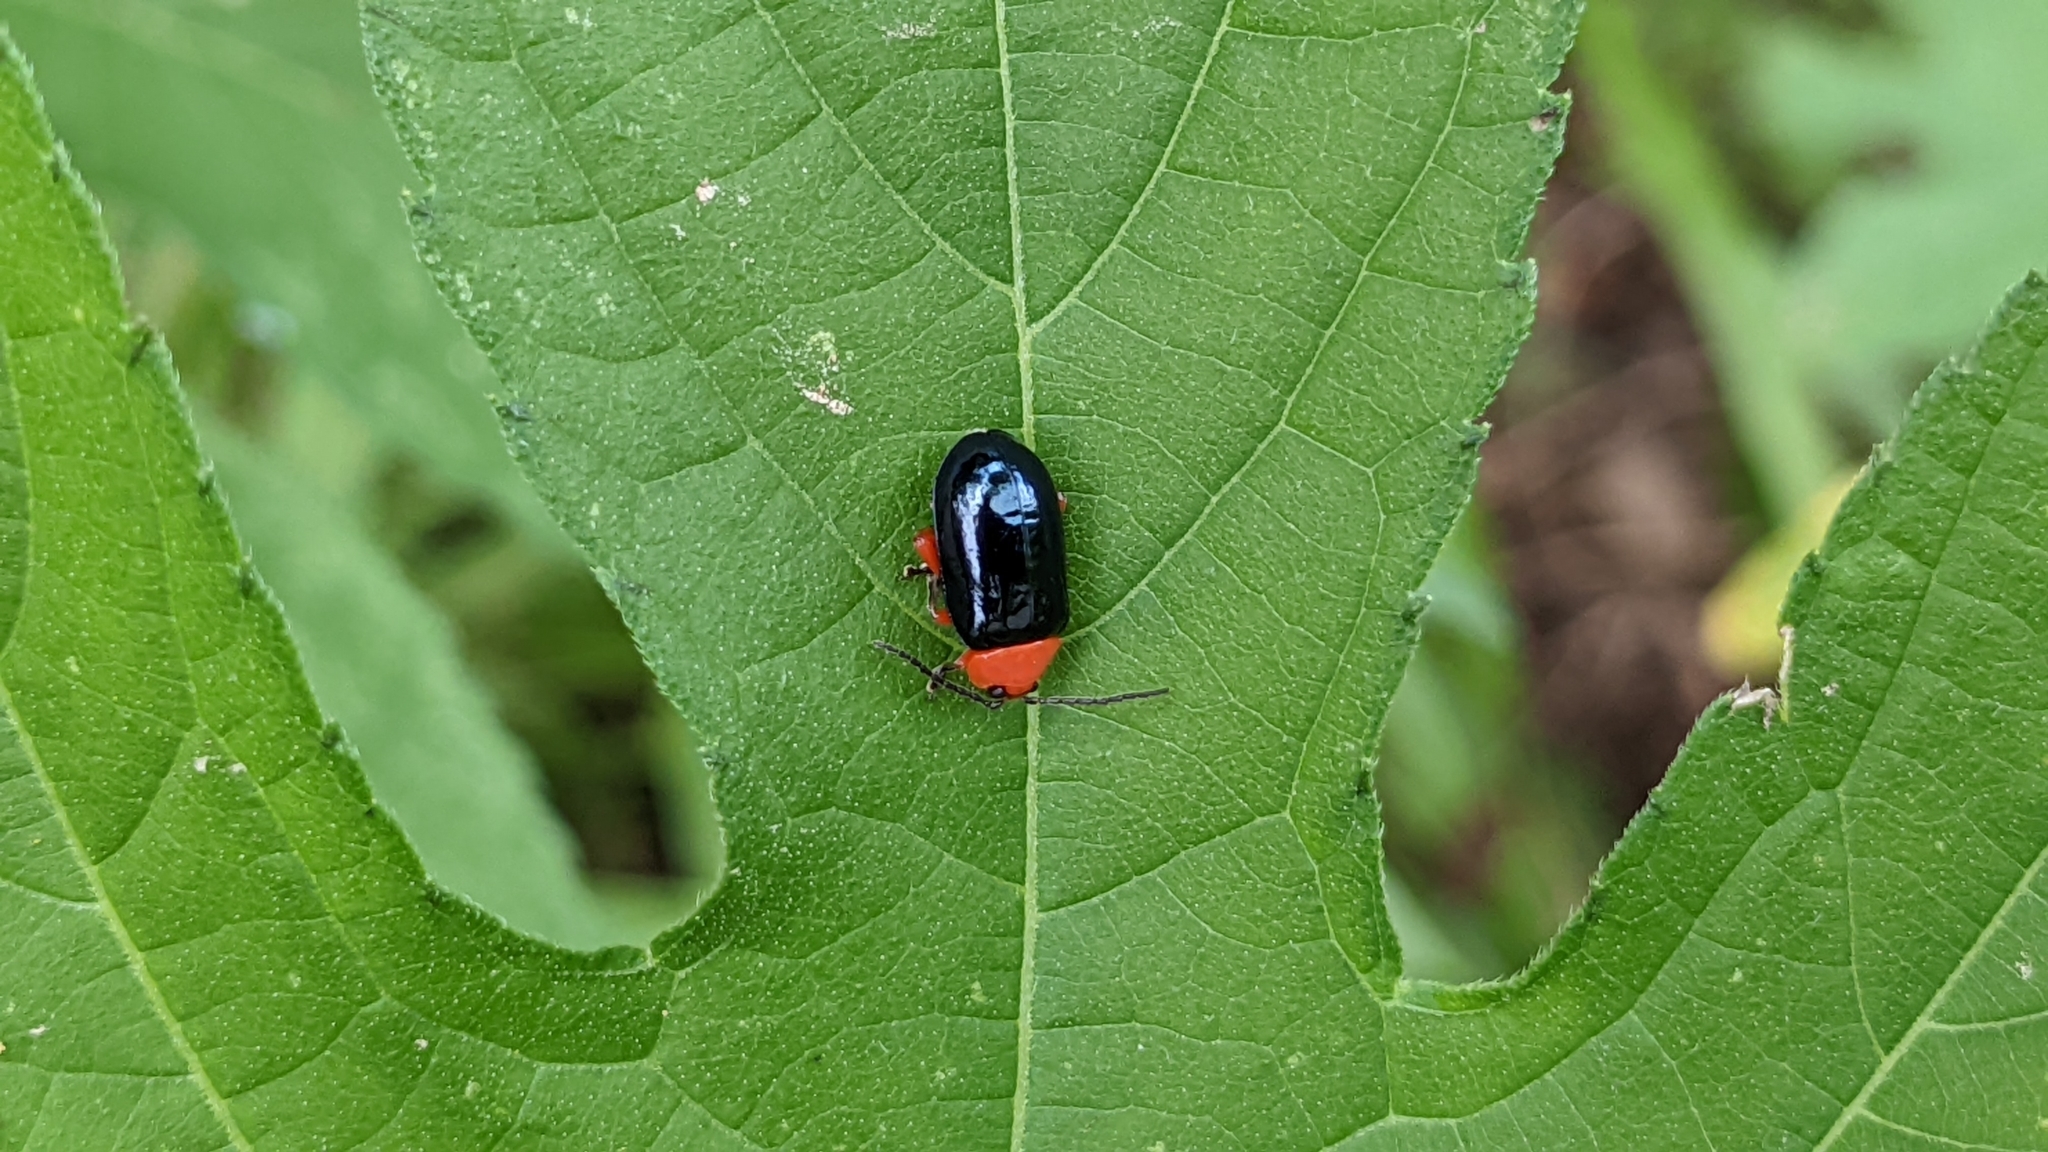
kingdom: Animalia
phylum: Arthropoda
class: Insecta
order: Coleoptera
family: Chrysomelidae
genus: Asphaera
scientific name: Asphaera lustrans
